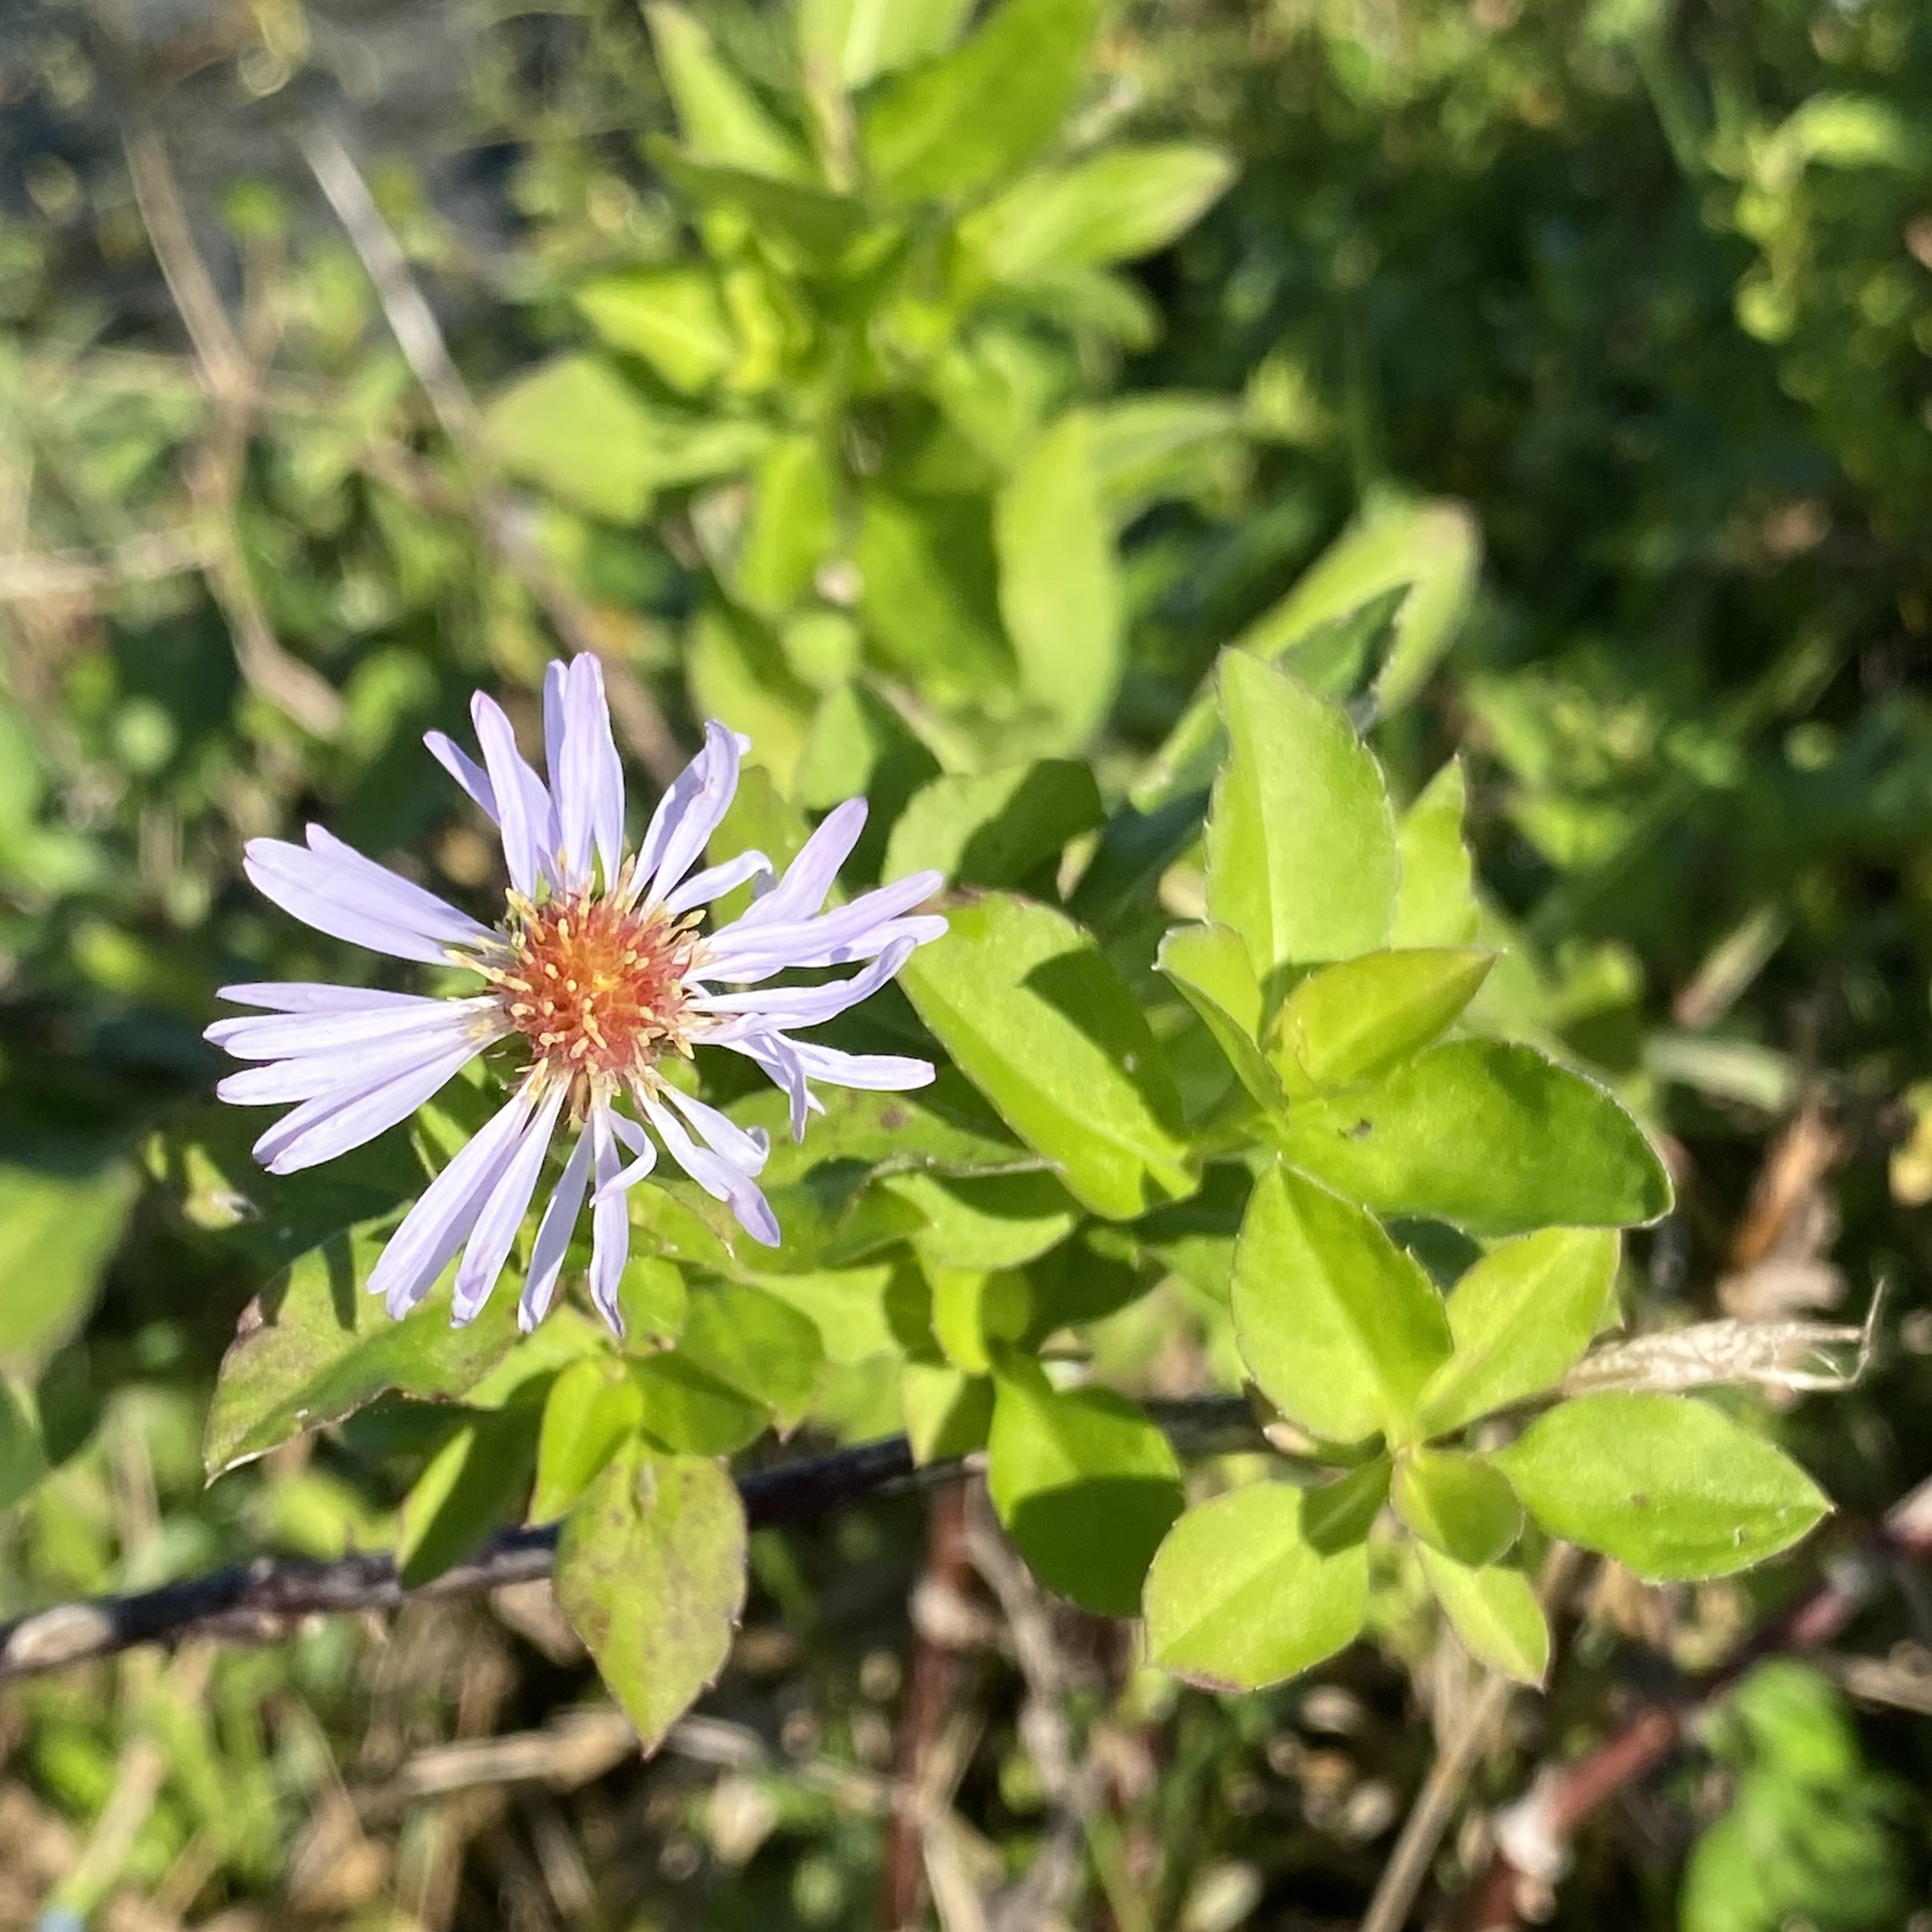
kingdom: Plantae
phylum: Tracheophyta
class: Magnoliopsida
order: Asterales
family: Asteraceae
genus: Symphyotrichum
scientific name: Symphyotrichum elliottii
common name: Southern swamp aster
